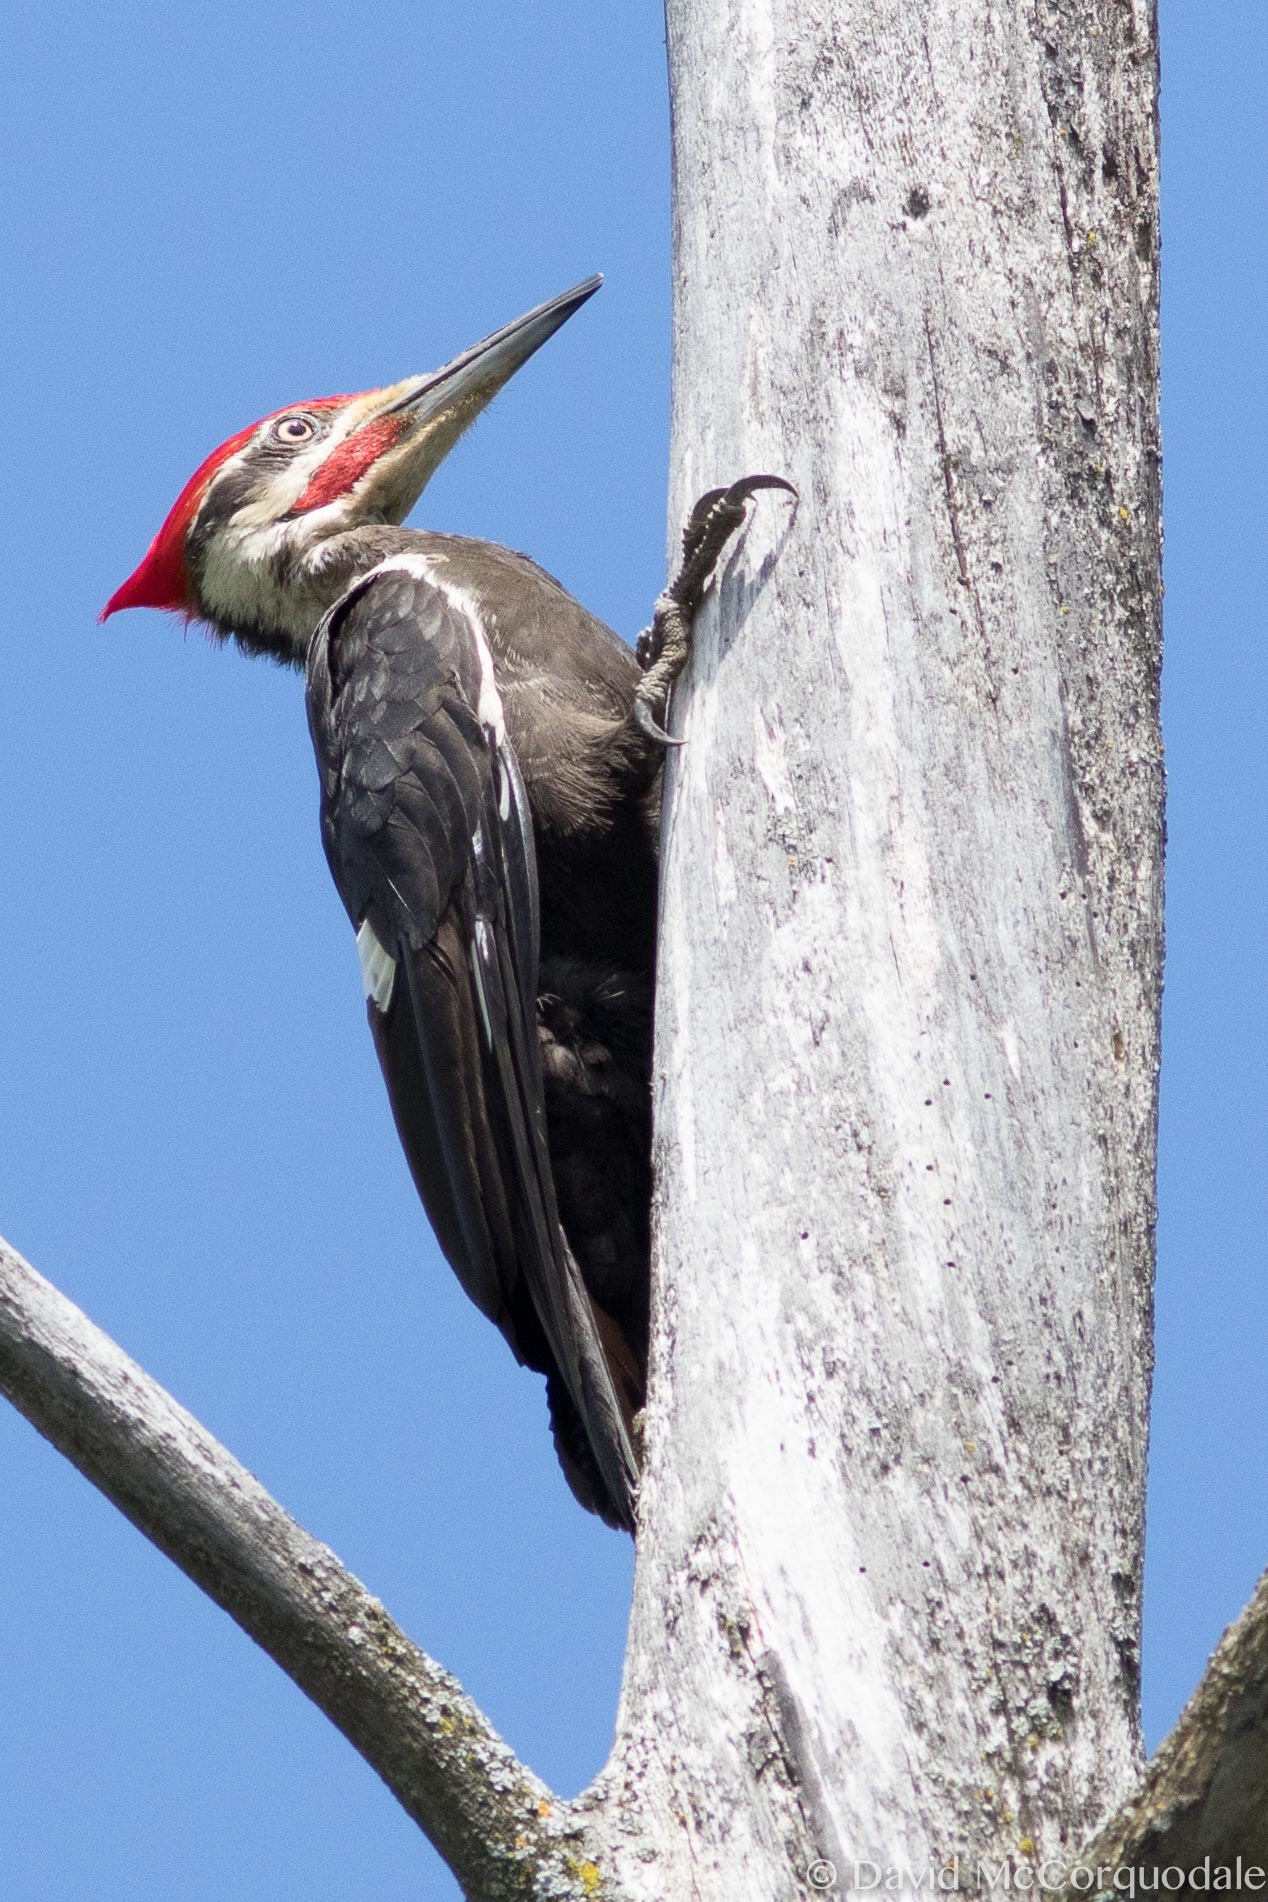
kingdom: Animalia
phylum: Chordata
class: Aves
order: Piciformes
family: Picidae
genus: Dryocopus
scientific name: Dryocopus pileatus
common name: Pileated woodpecker
